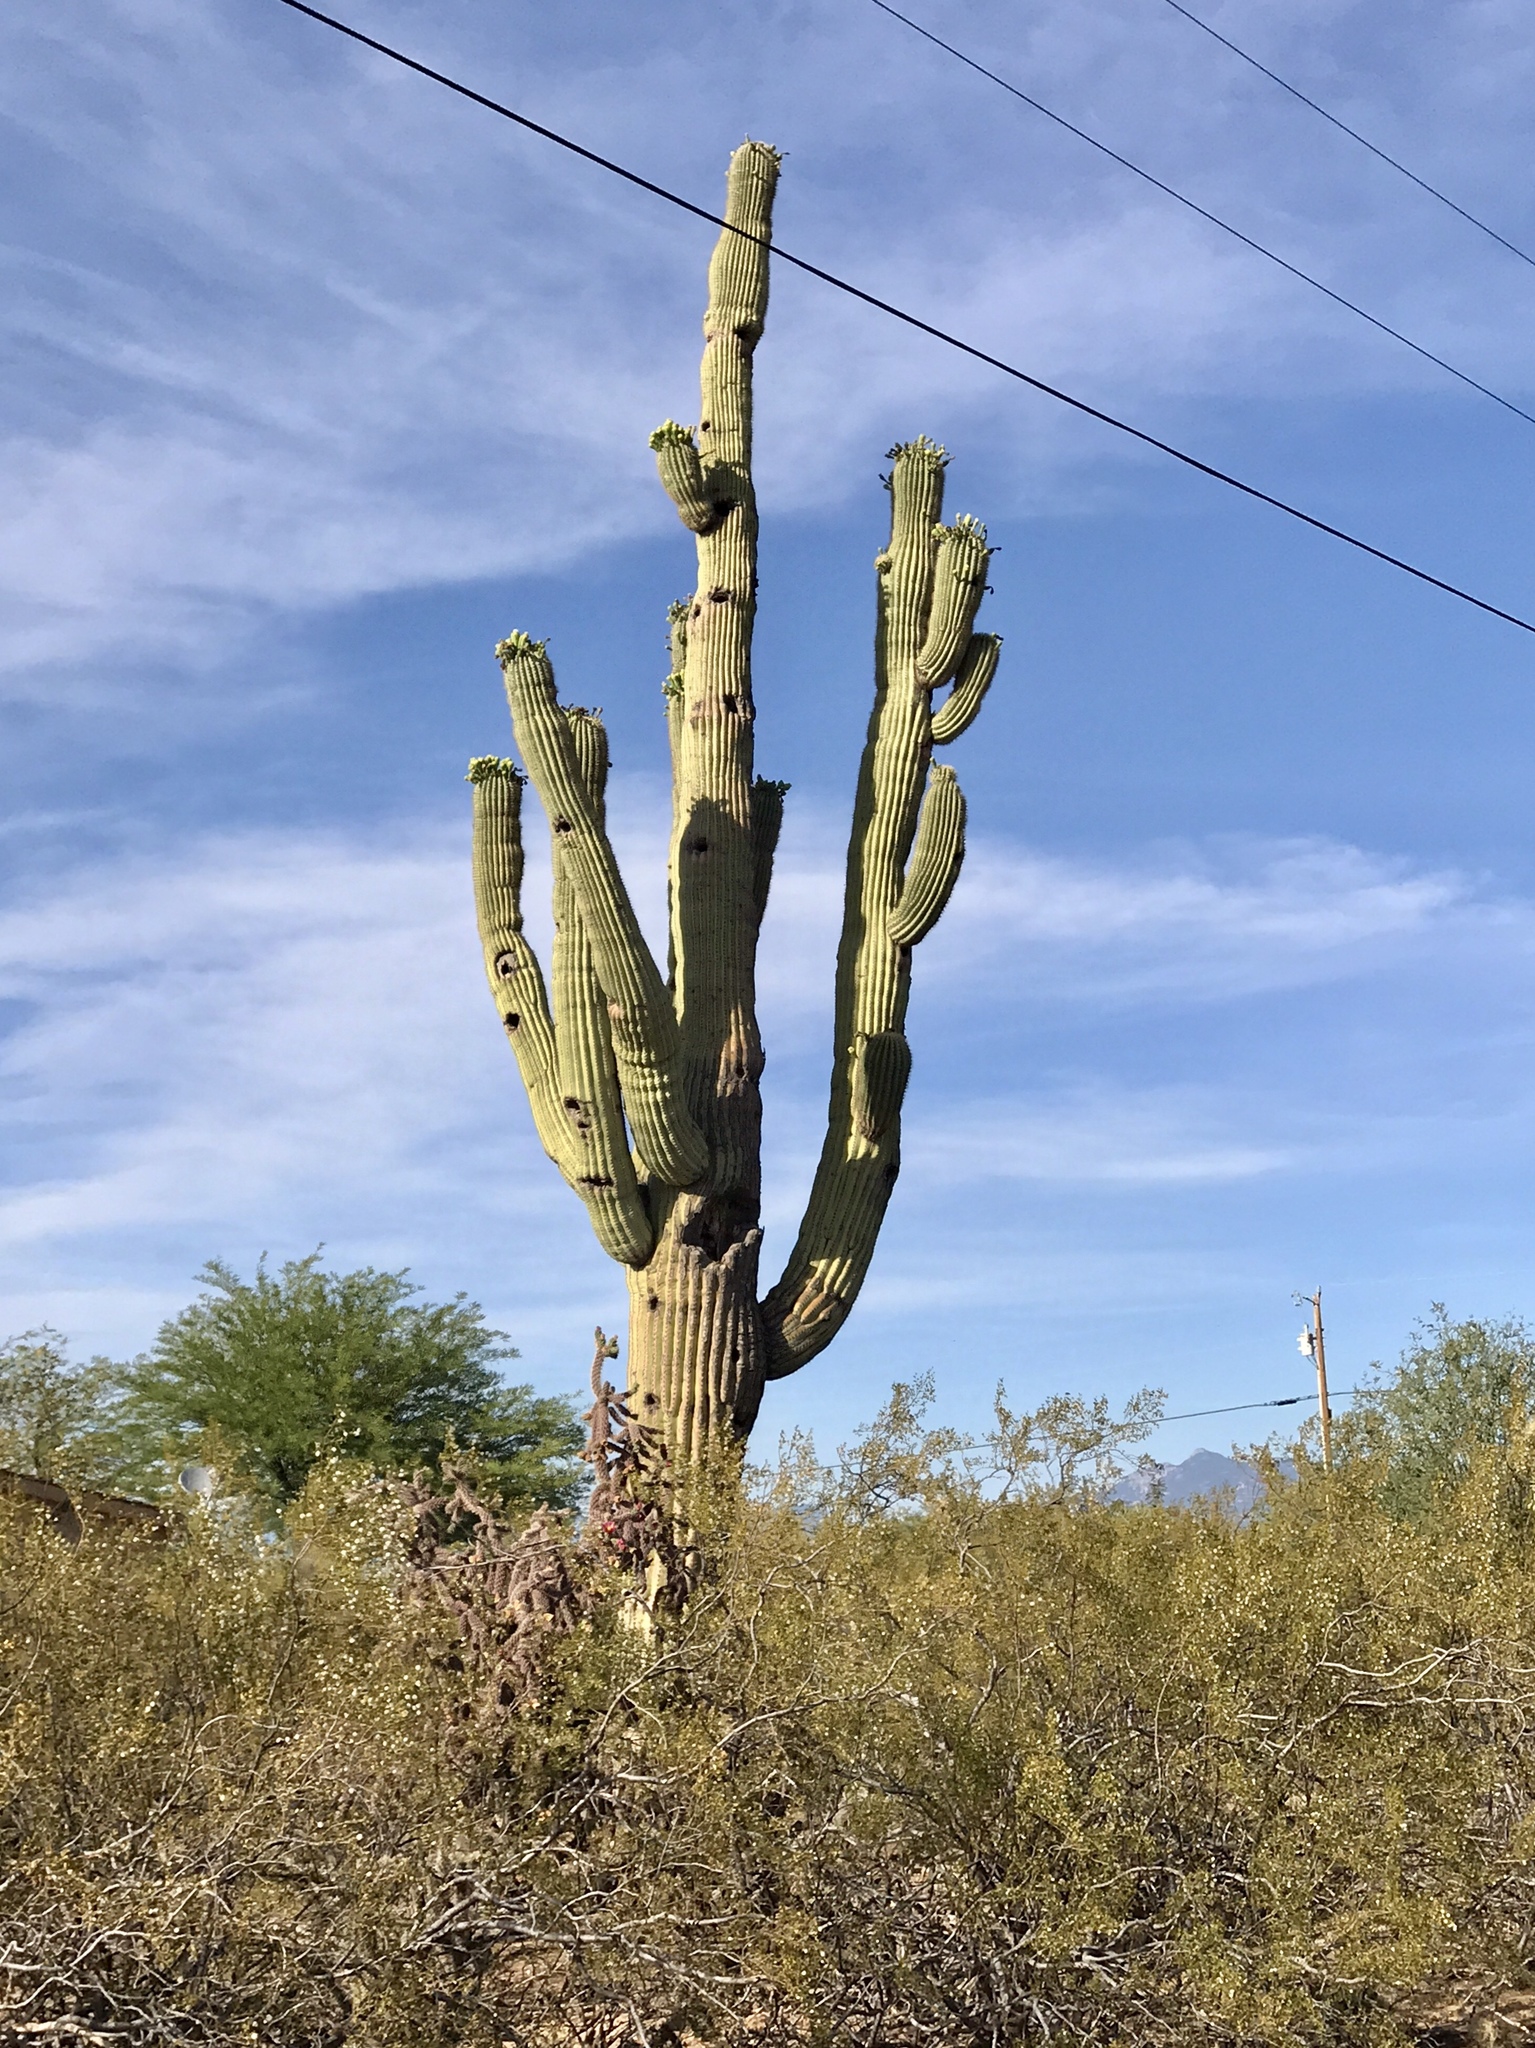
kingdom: Plantae
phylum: Tracheophyta
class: Magnoliopsida
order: Caryophyllales
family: Cactaceae
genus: Carnegiea
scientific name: Carnegiea gigantea
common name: Saguaro
